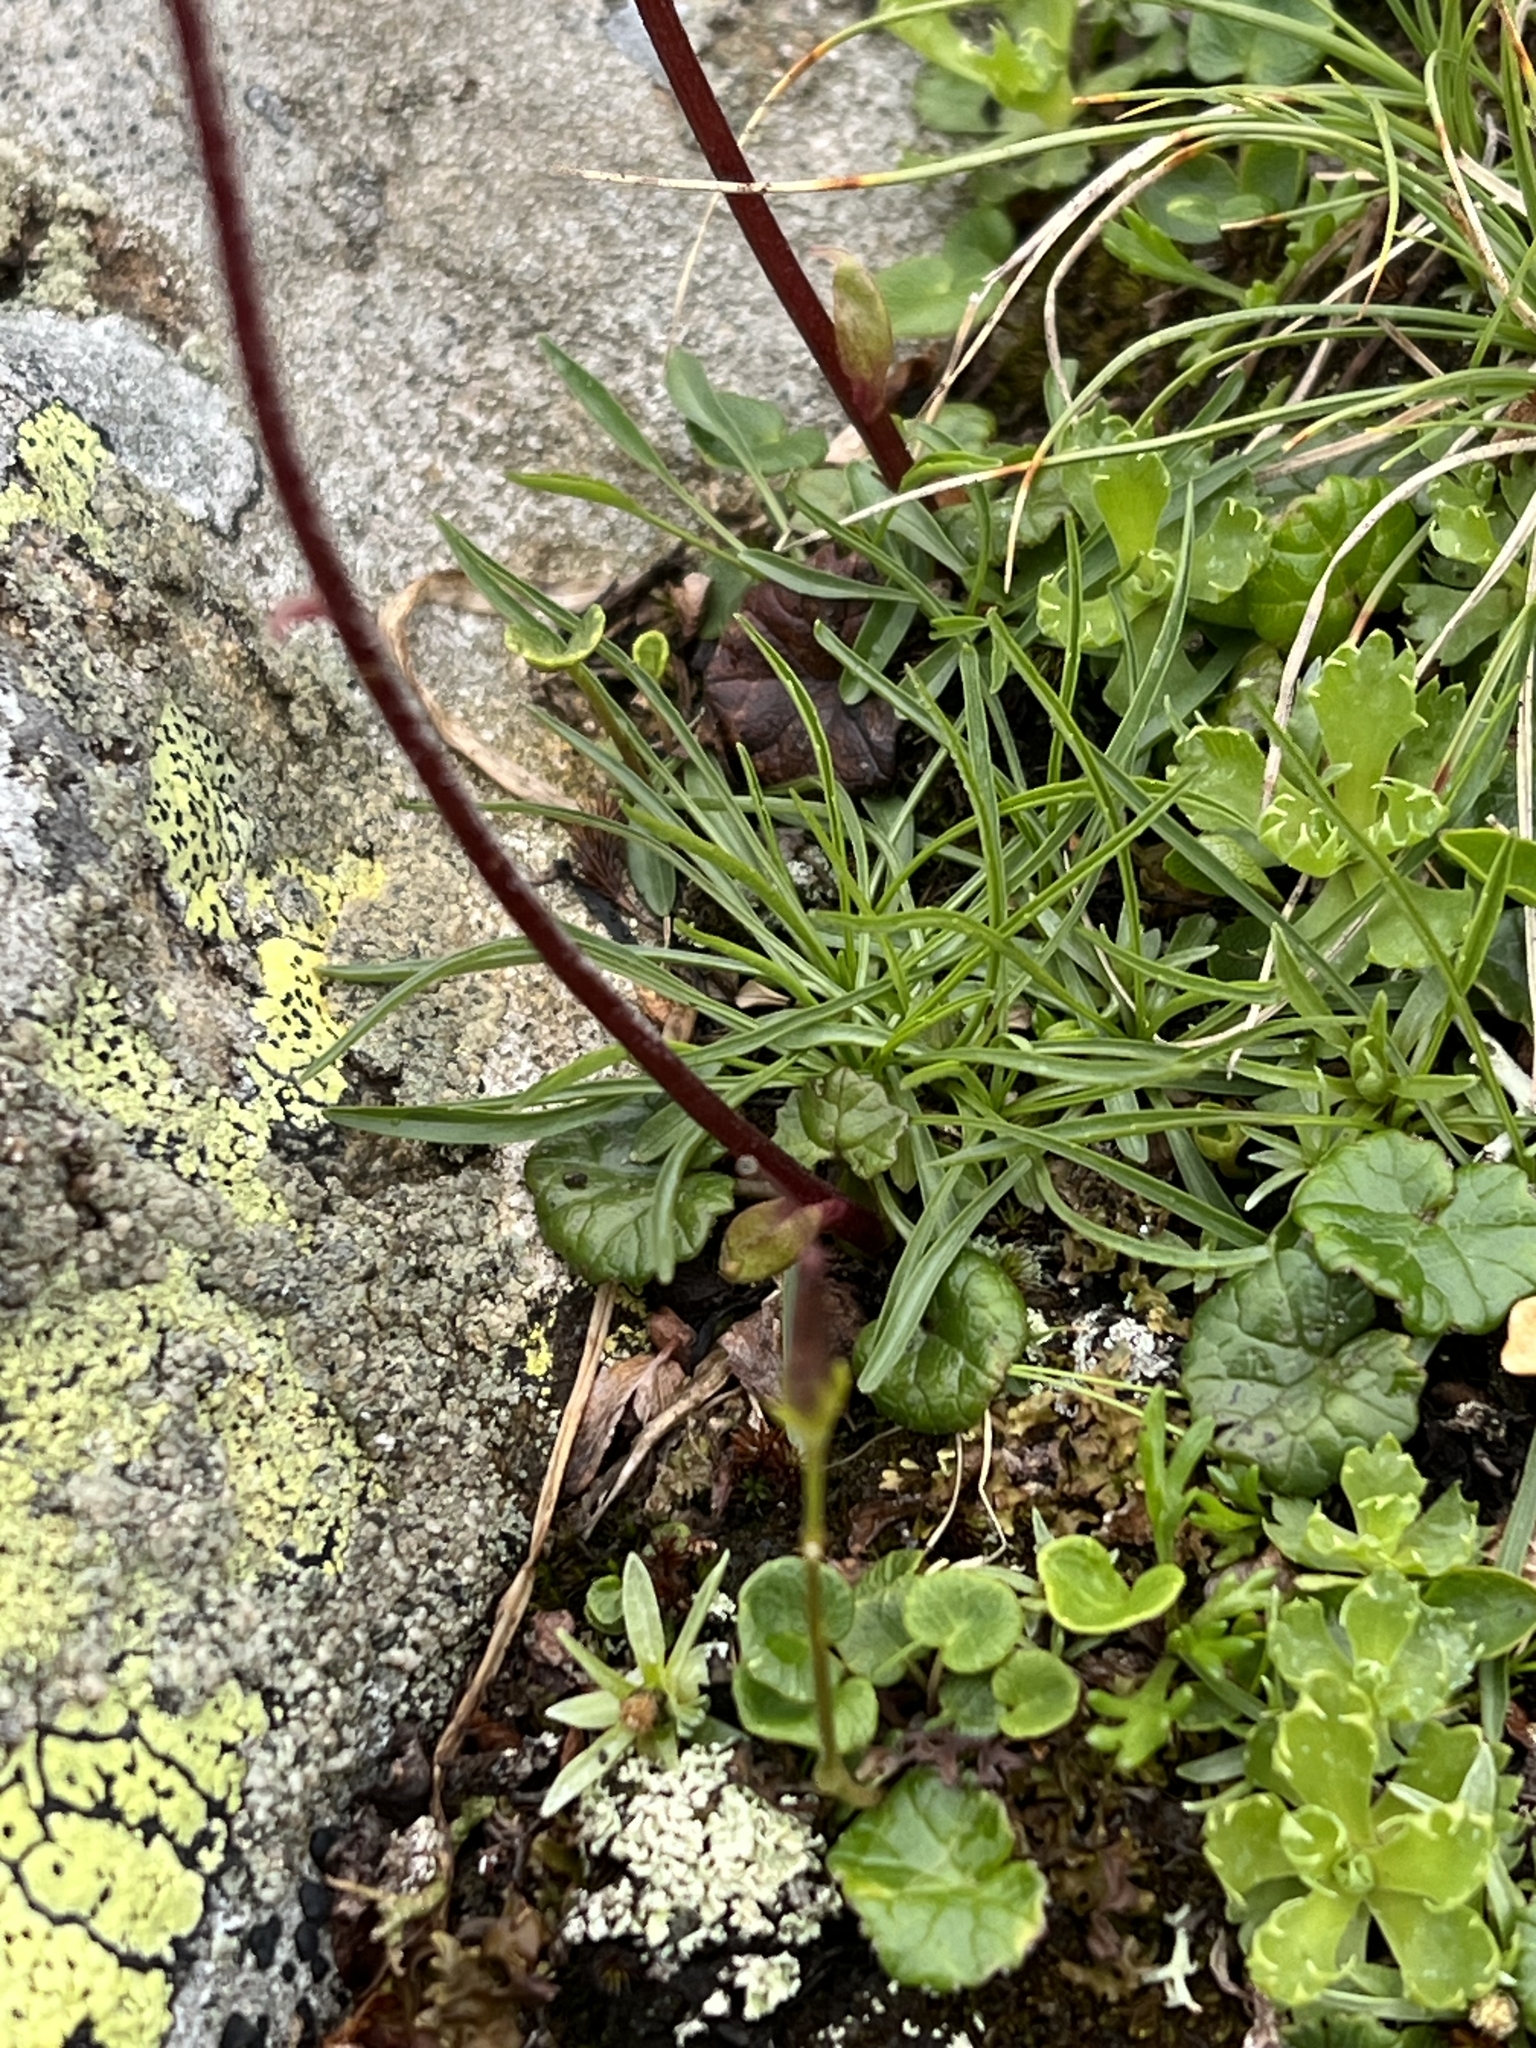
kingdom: Plantae
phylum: Tracheophyta
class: Magnoliopsida
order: Asterales
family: Asteraceae
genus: Homogyne
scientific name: Homogyne alpina
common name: Purple colt's-foot
